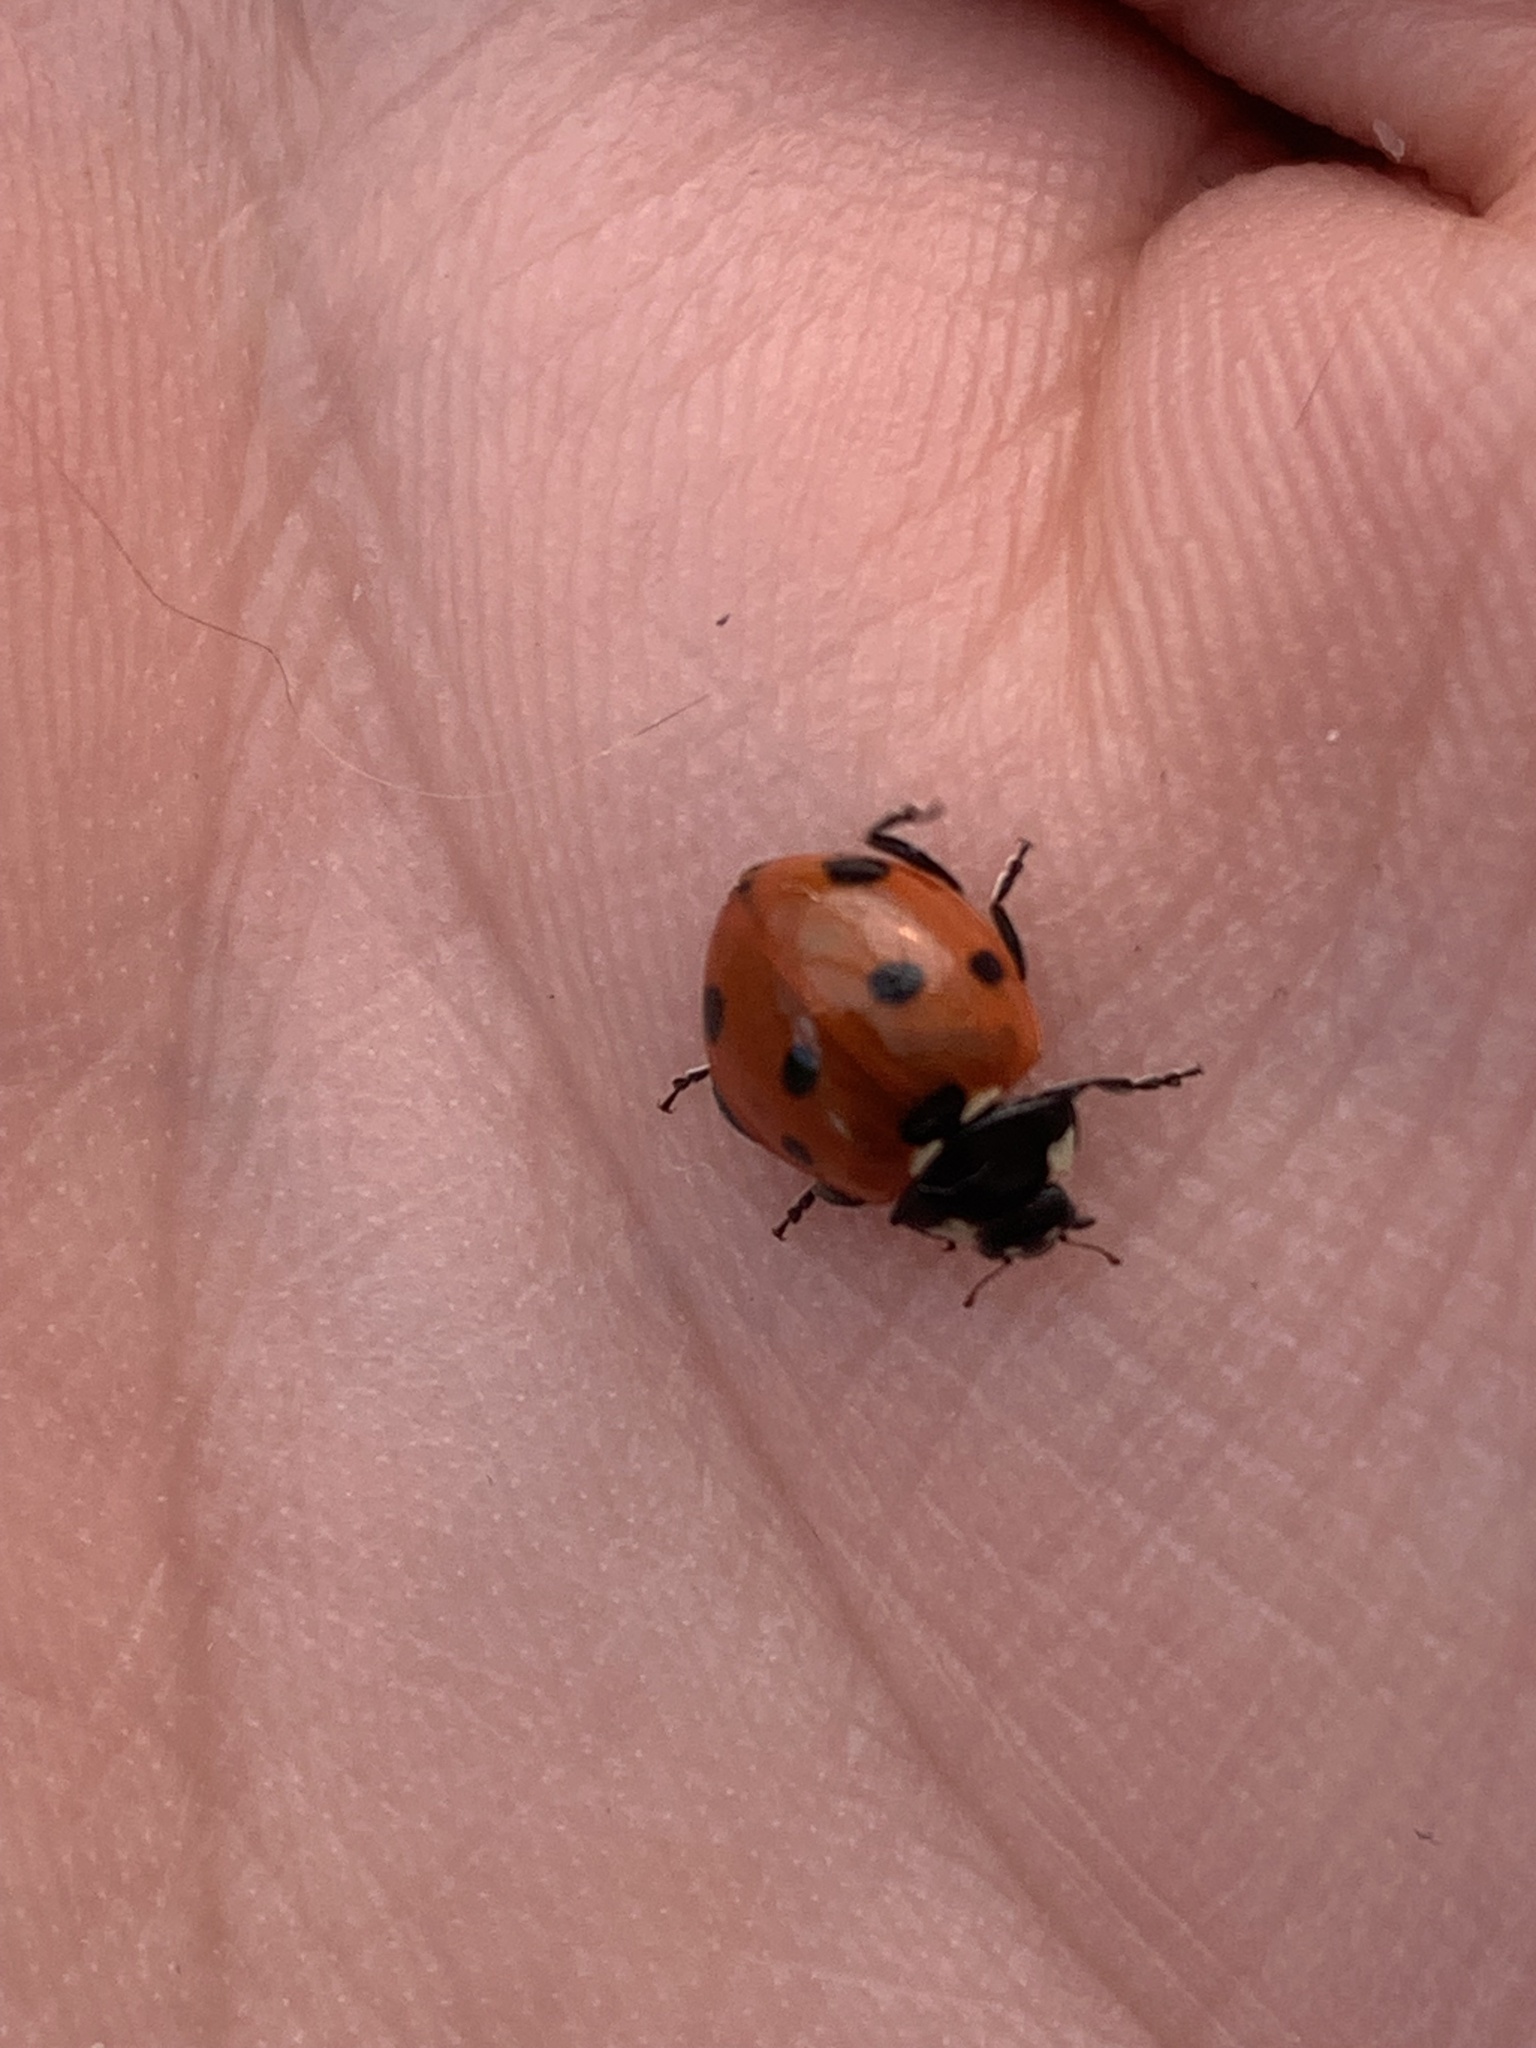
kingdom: Animalia
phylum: Arthropoda
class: Insecta
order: Coleoptera
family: Coccinellidae
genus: Coccinella
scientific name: Coccinella septempunctata
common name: Sevenspotted lady beetle
